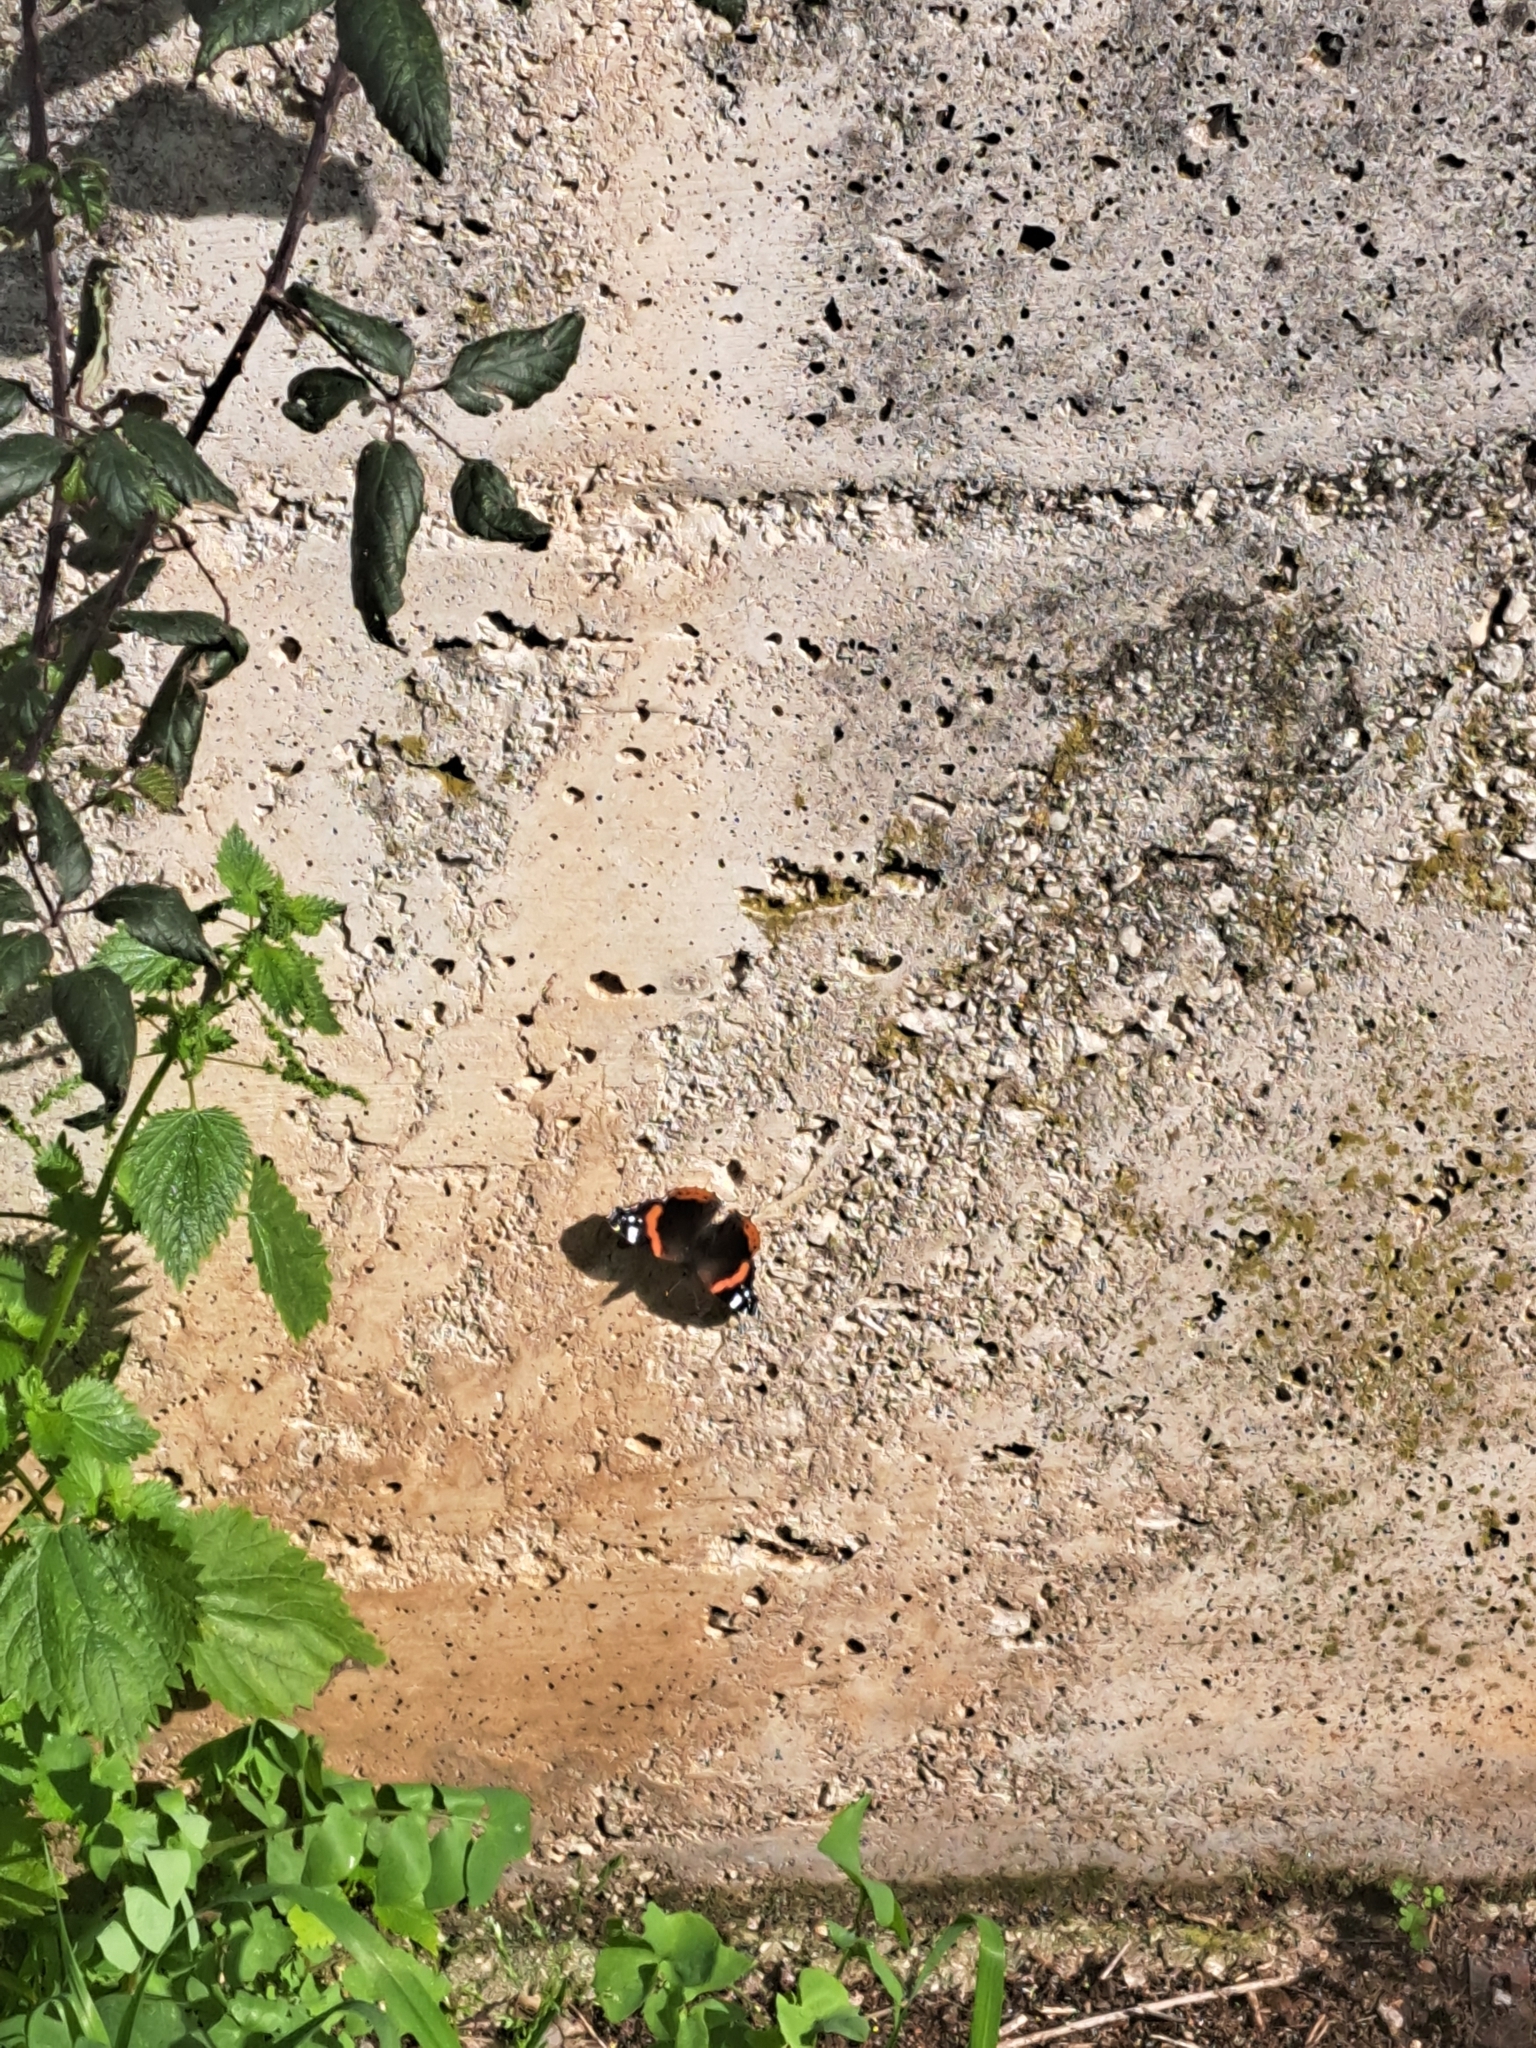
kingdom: Animalia
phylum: Arthropoda
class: Insecta
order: Lepidoptera
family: Nymphalidae
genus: Vanessa
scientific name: Vanessa atalanta
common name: Red admiral
